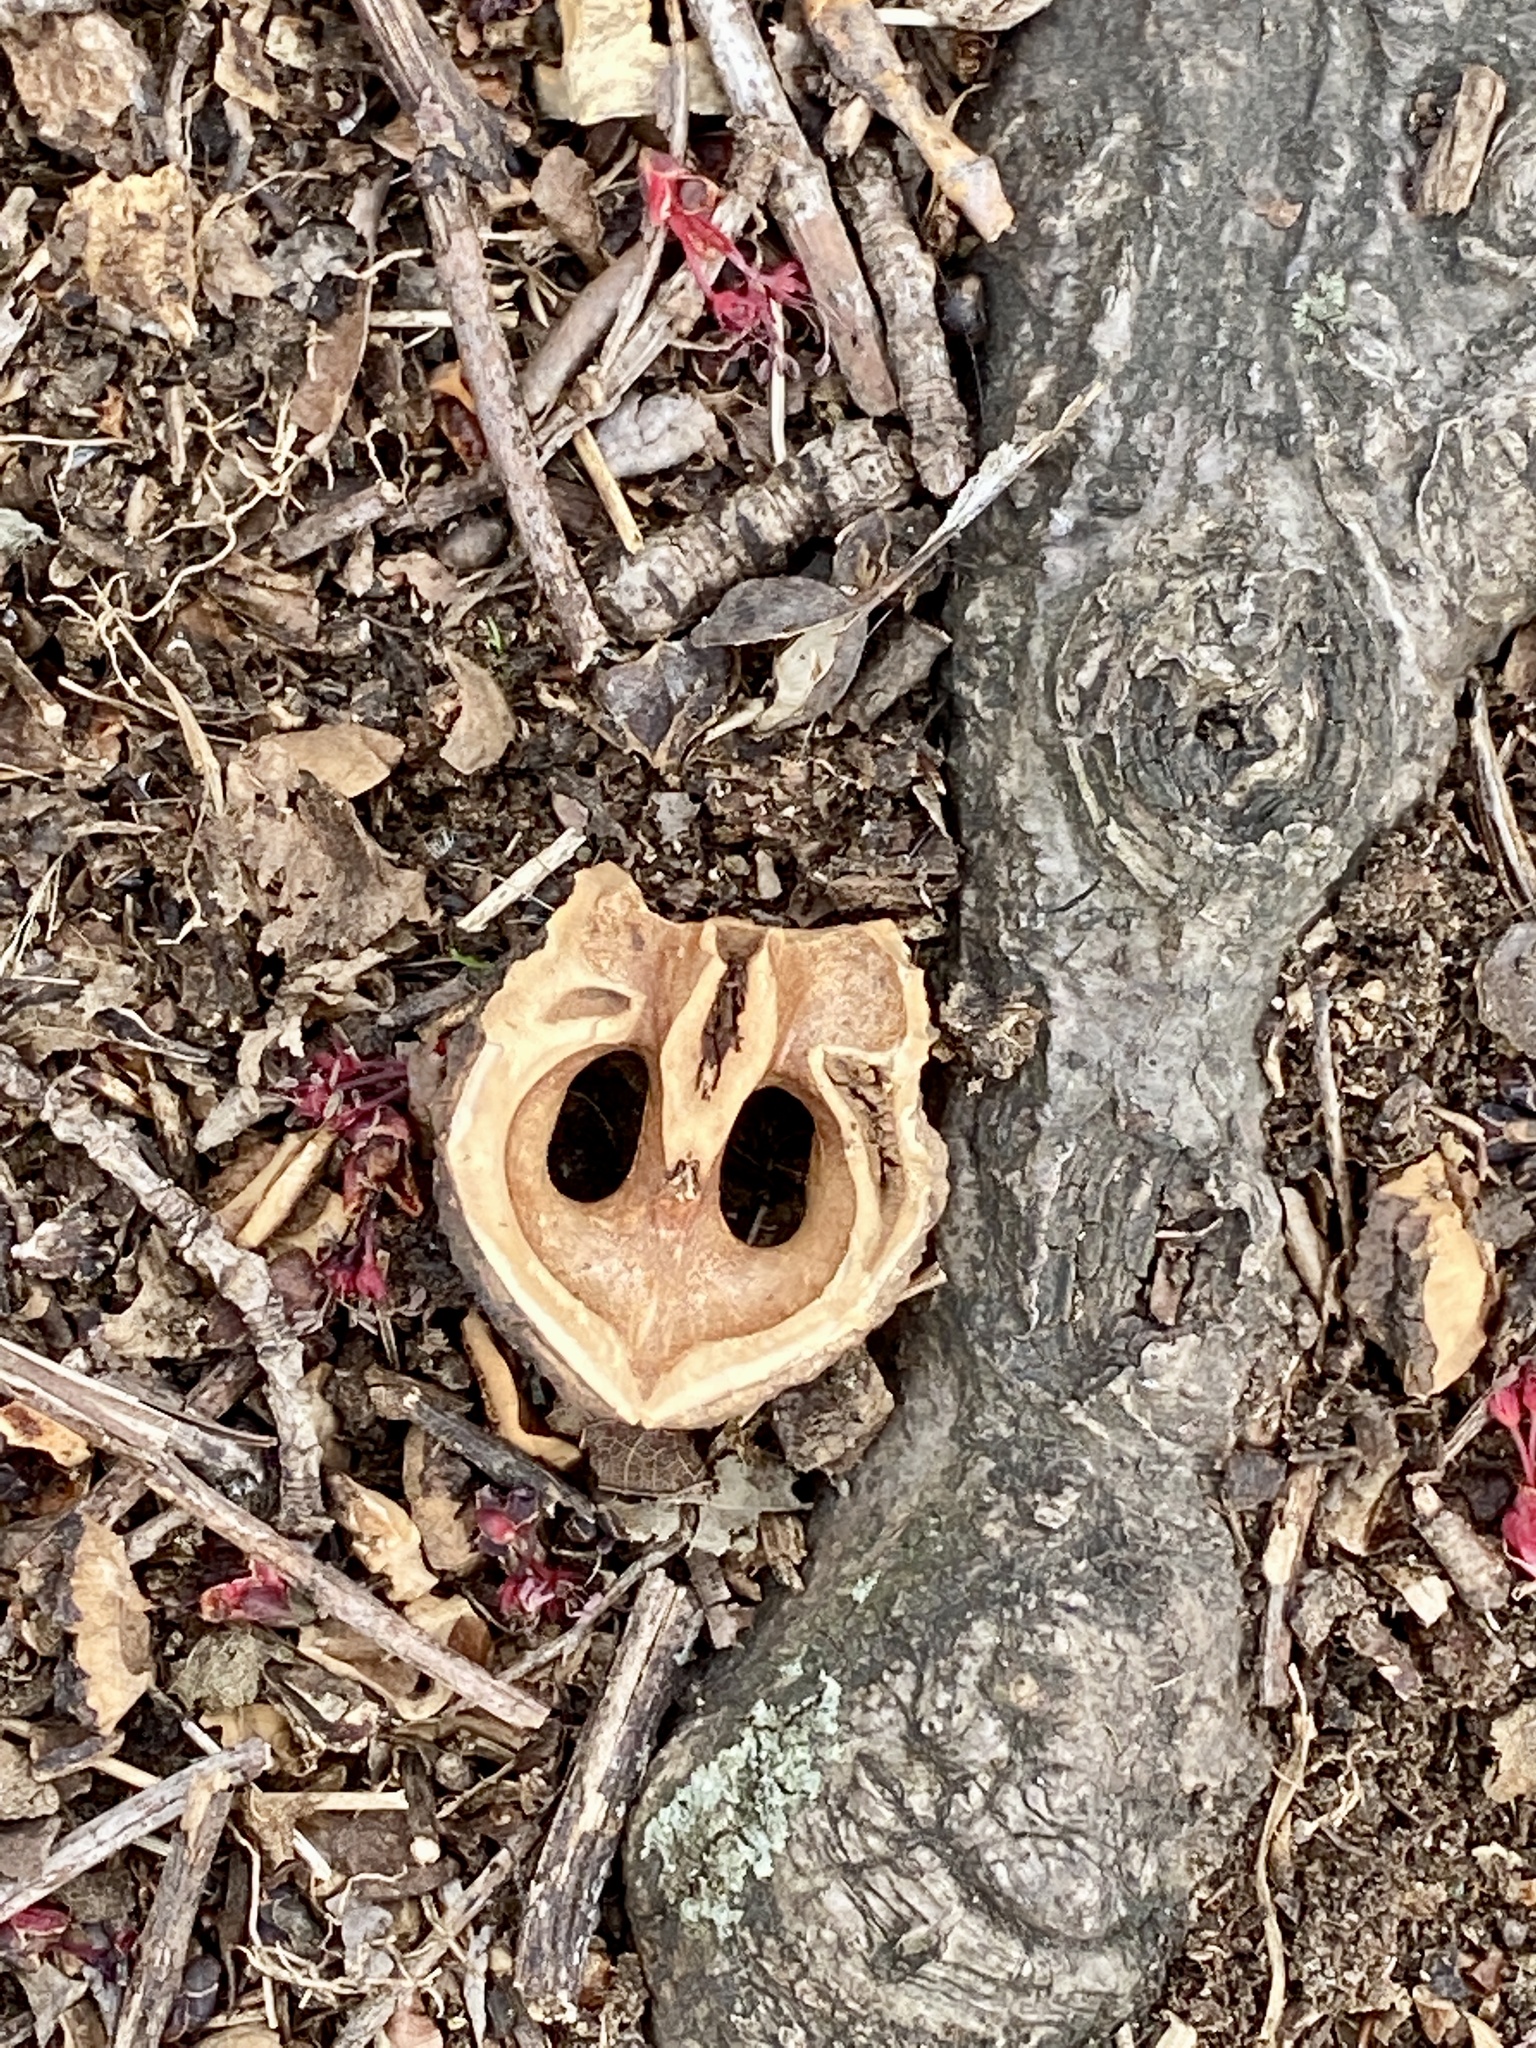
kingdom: Plantae
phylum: Tracheophyta
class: Magnoliopsida
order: Fagales
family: Juglandaceae
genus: Juglans
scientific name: Juglans nigra
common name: Black walnut
